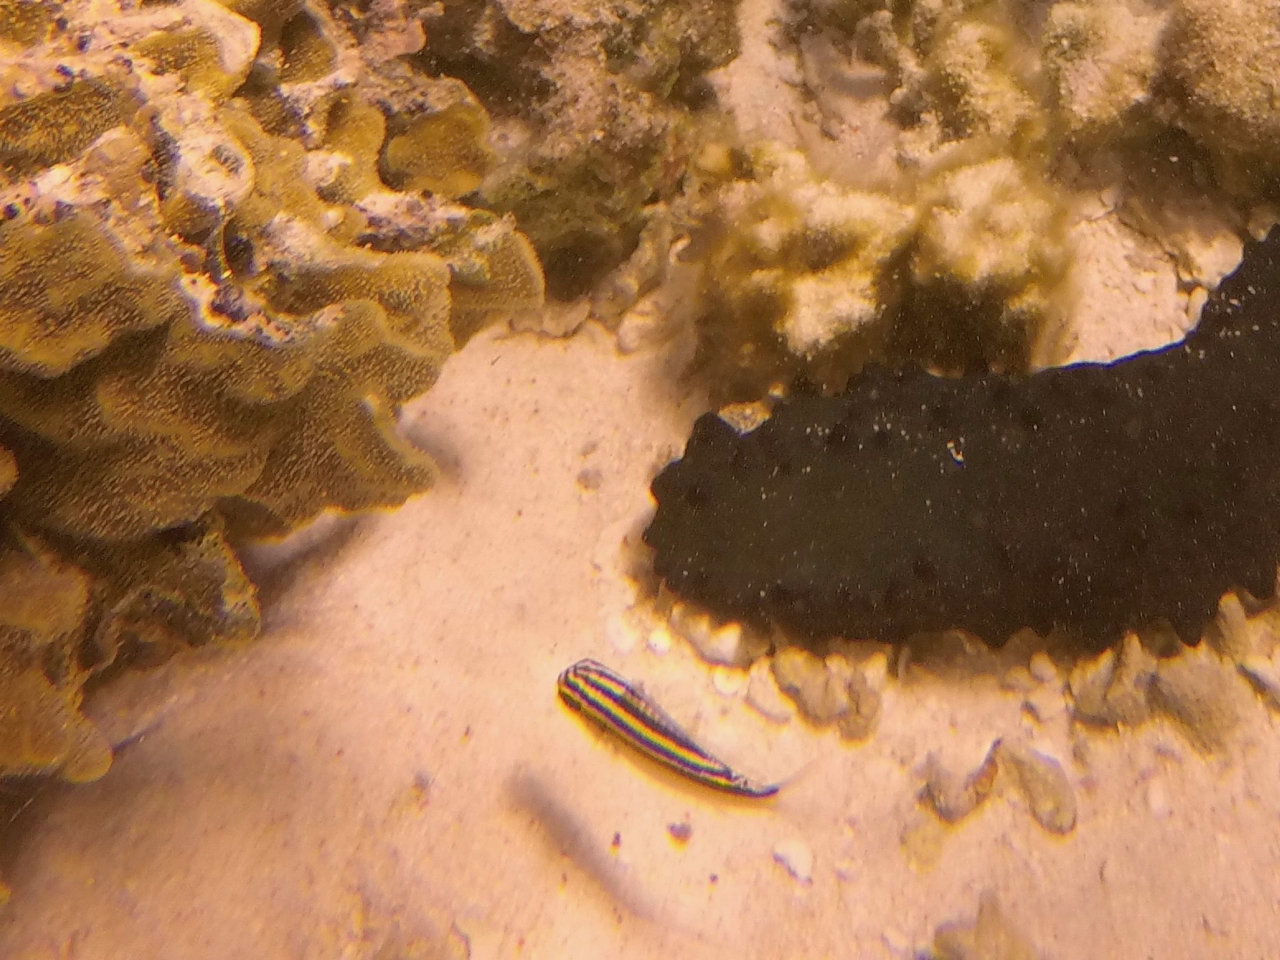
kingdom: Animalia
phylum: Chordata
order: Perciformes
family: Nemipteridae
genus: Scolopsis
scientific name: Scolopsis
